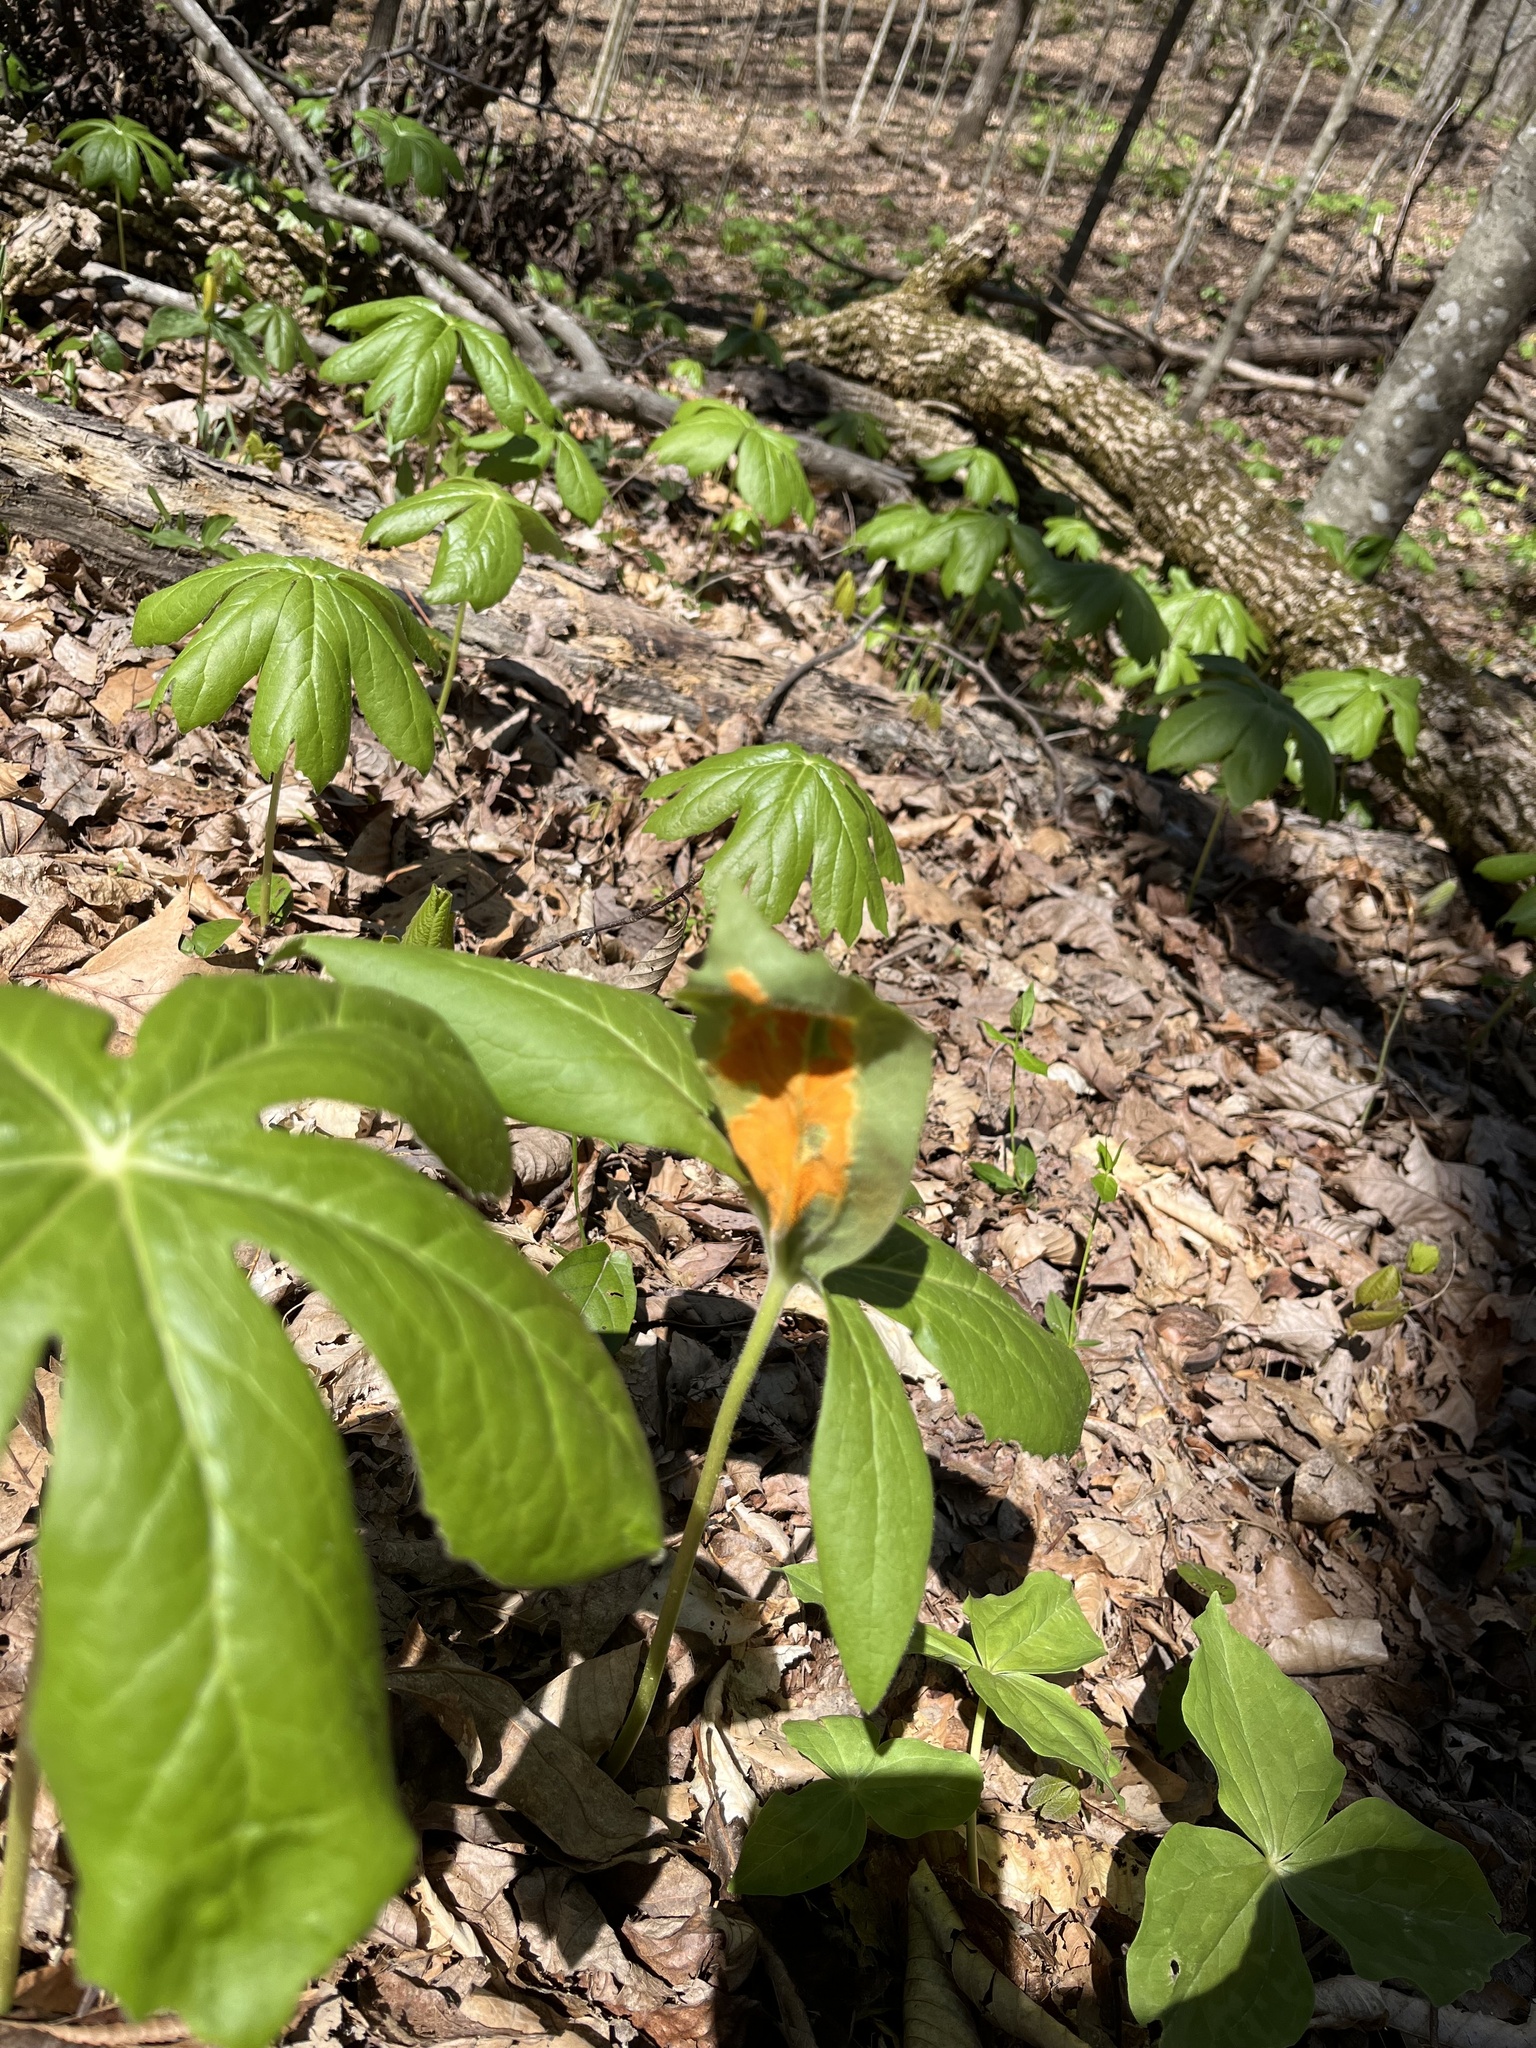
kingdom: Fungi
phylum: Basidiomycota
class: Pucciniomycetes
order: Pucciniales
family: Pucciniaceae
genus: Puccinia
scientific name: Puccinia podophylli
